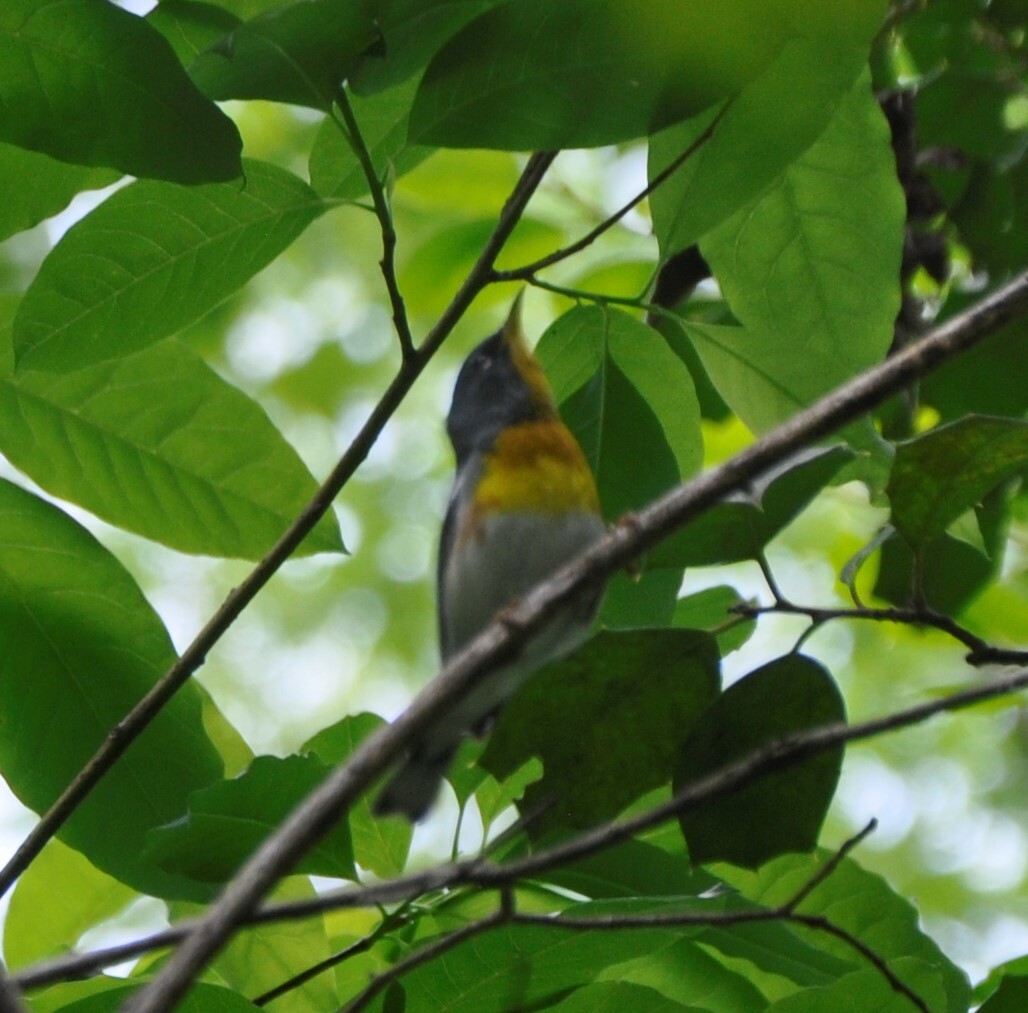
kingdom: Animalia
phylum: Chordata
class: Aves
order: Passeriformes
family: Parulidae
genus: Setophaga
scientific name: Setophaga americana
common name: Northern parula
